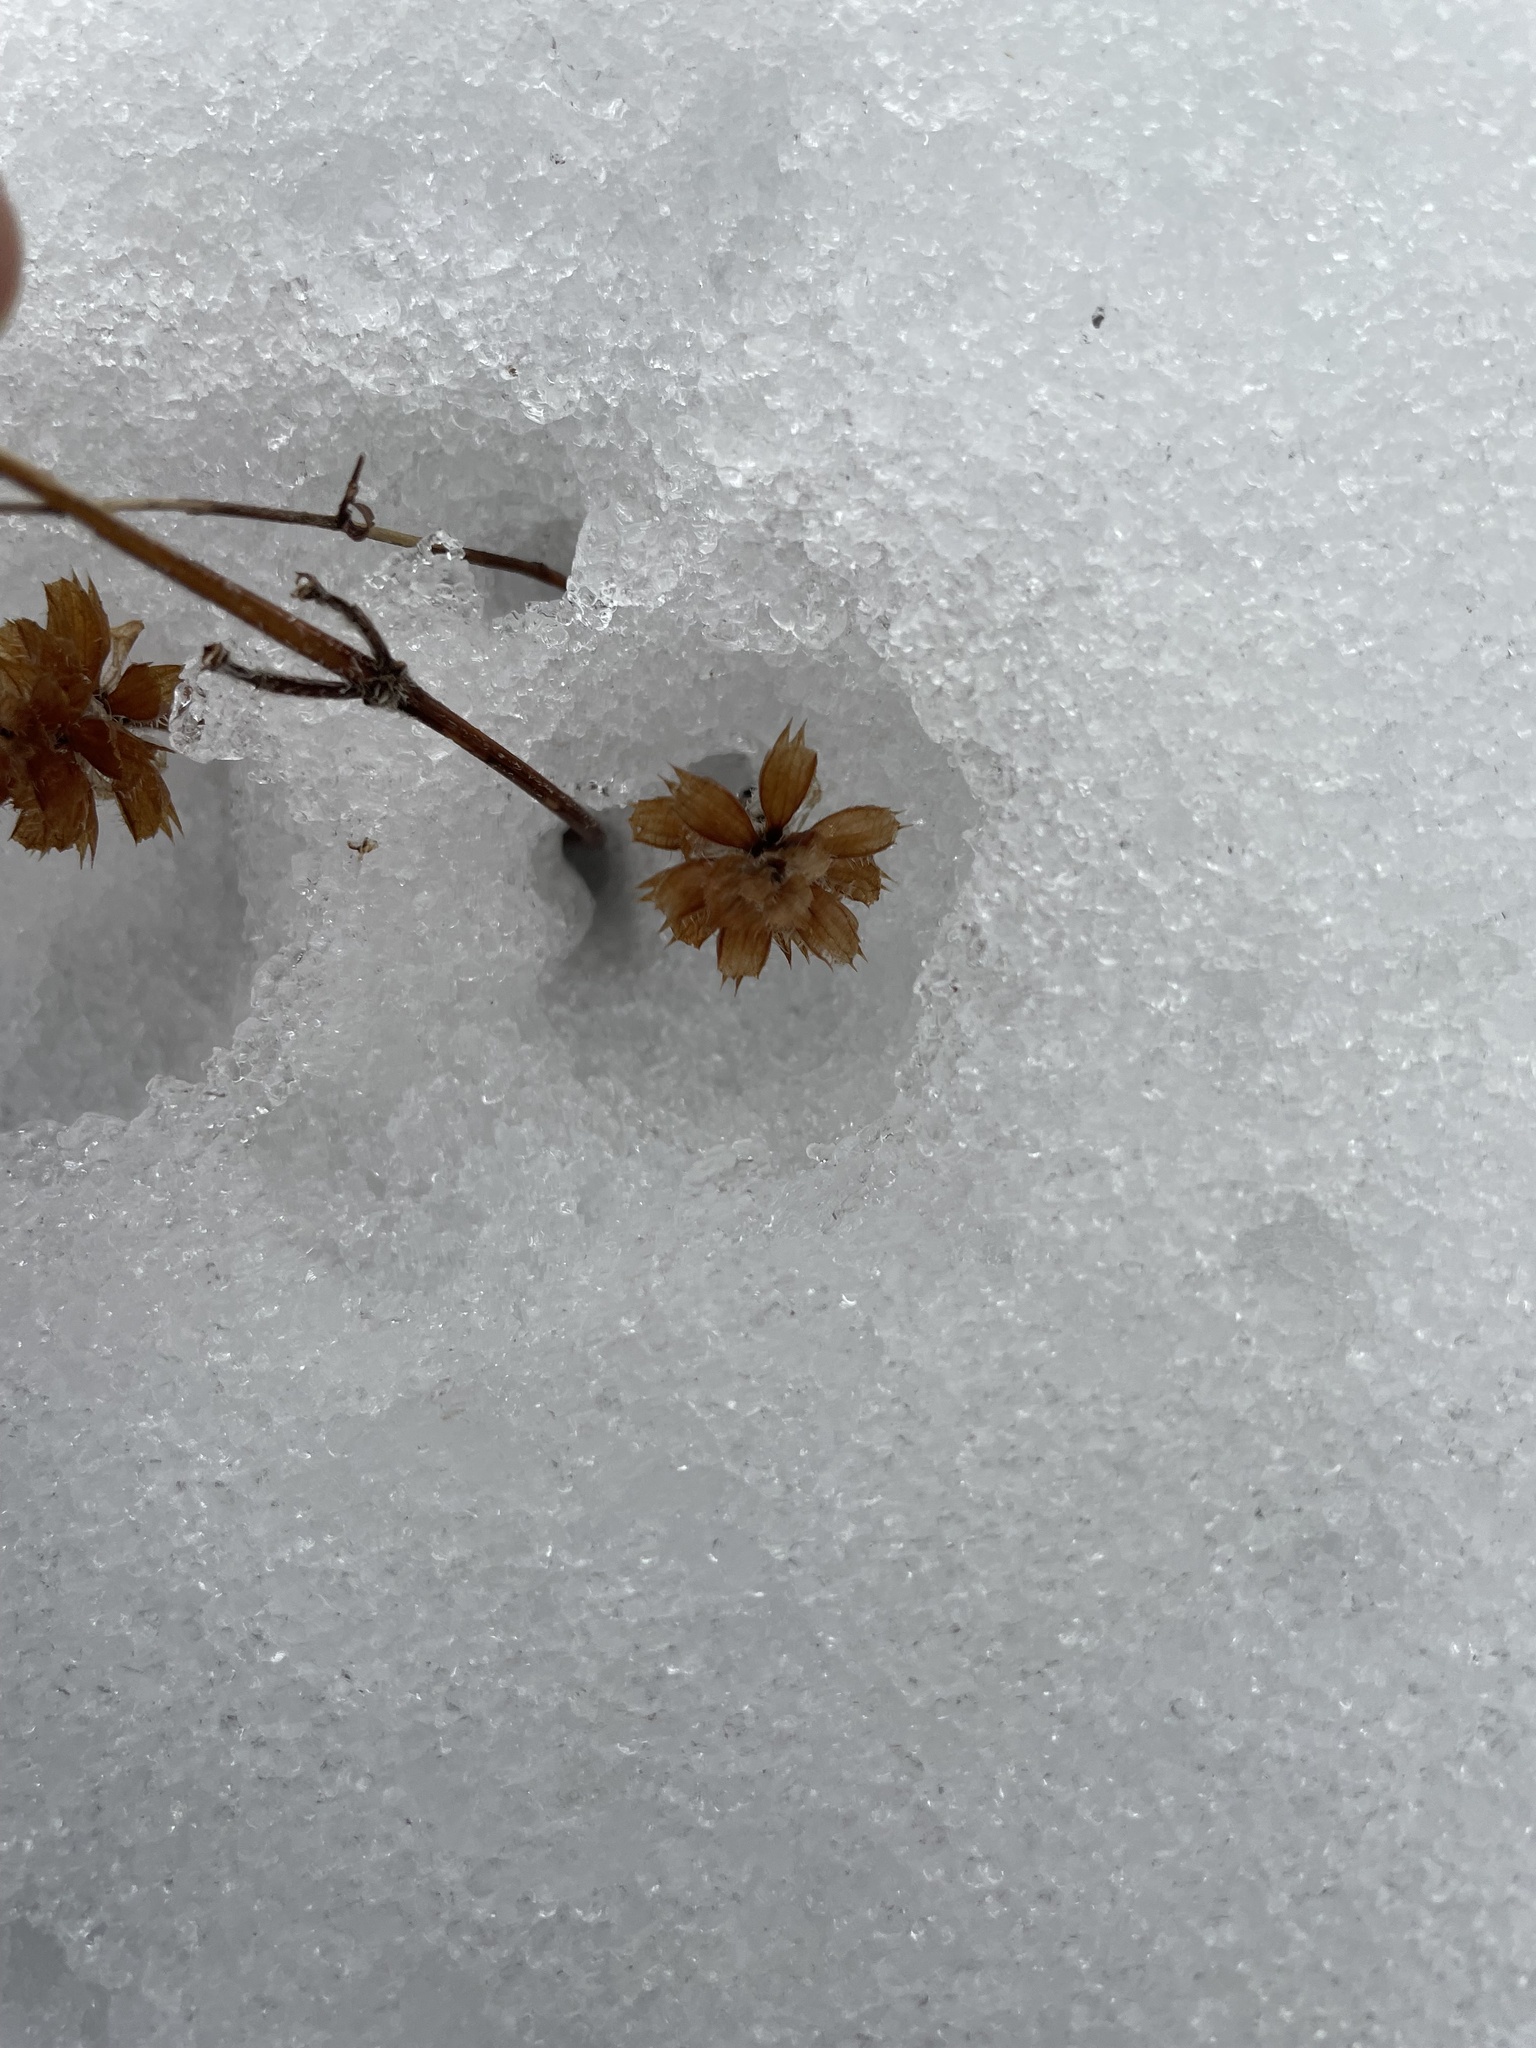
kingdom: Plantae
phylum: Tracheophyta
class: Magnoliopsida
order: Lamiales
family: Lamiaceae
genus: Prunella
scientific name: Prunella vulgaris
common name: Heal-all
